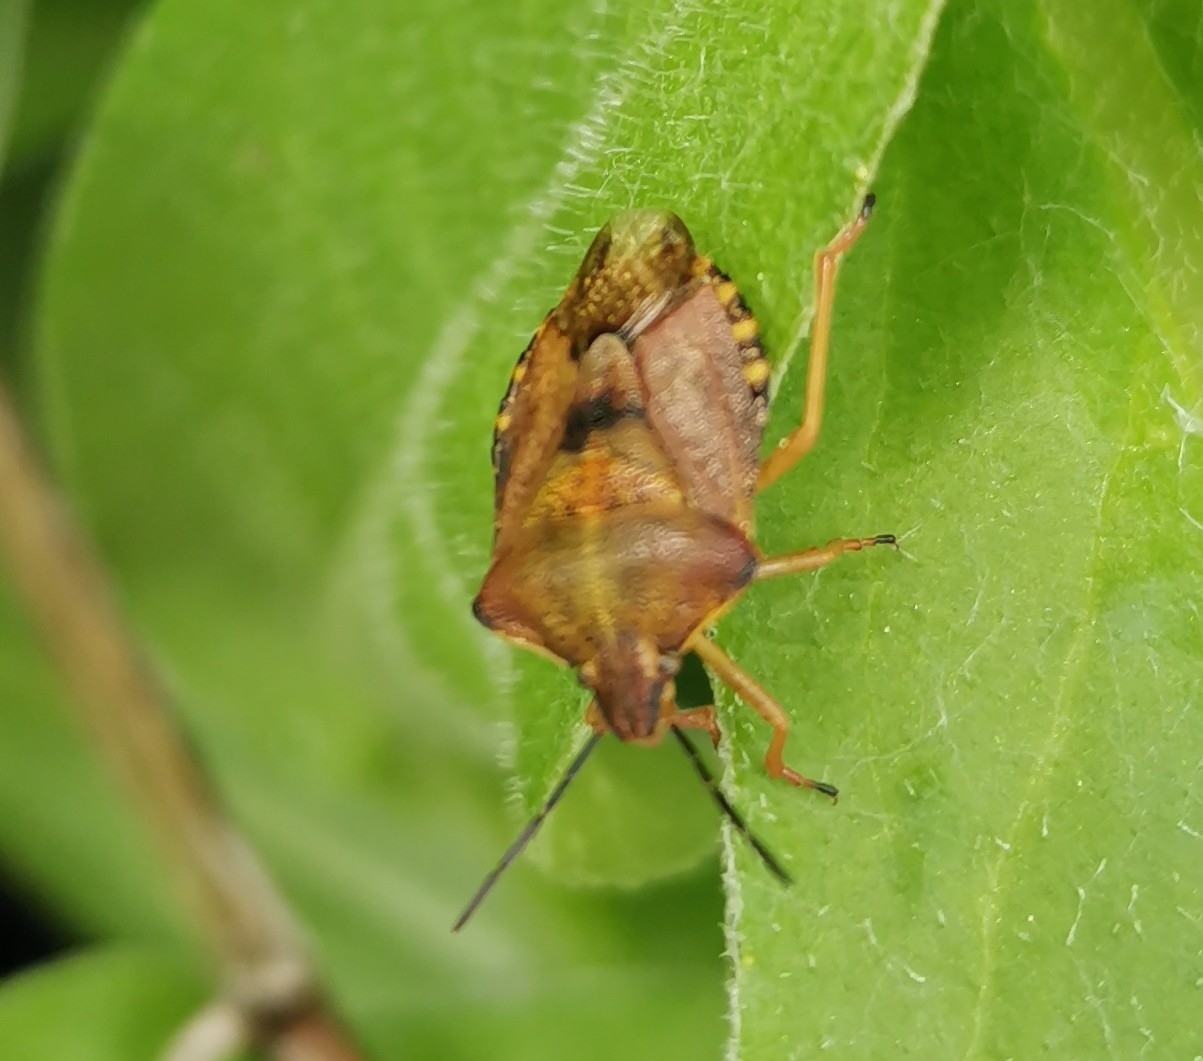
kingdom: Animalia
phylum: Arthropoda
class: Insecta
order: Hemiptera
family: Pentatomidae
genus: Carpocoris
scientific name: Carpocoris purpureipennis
